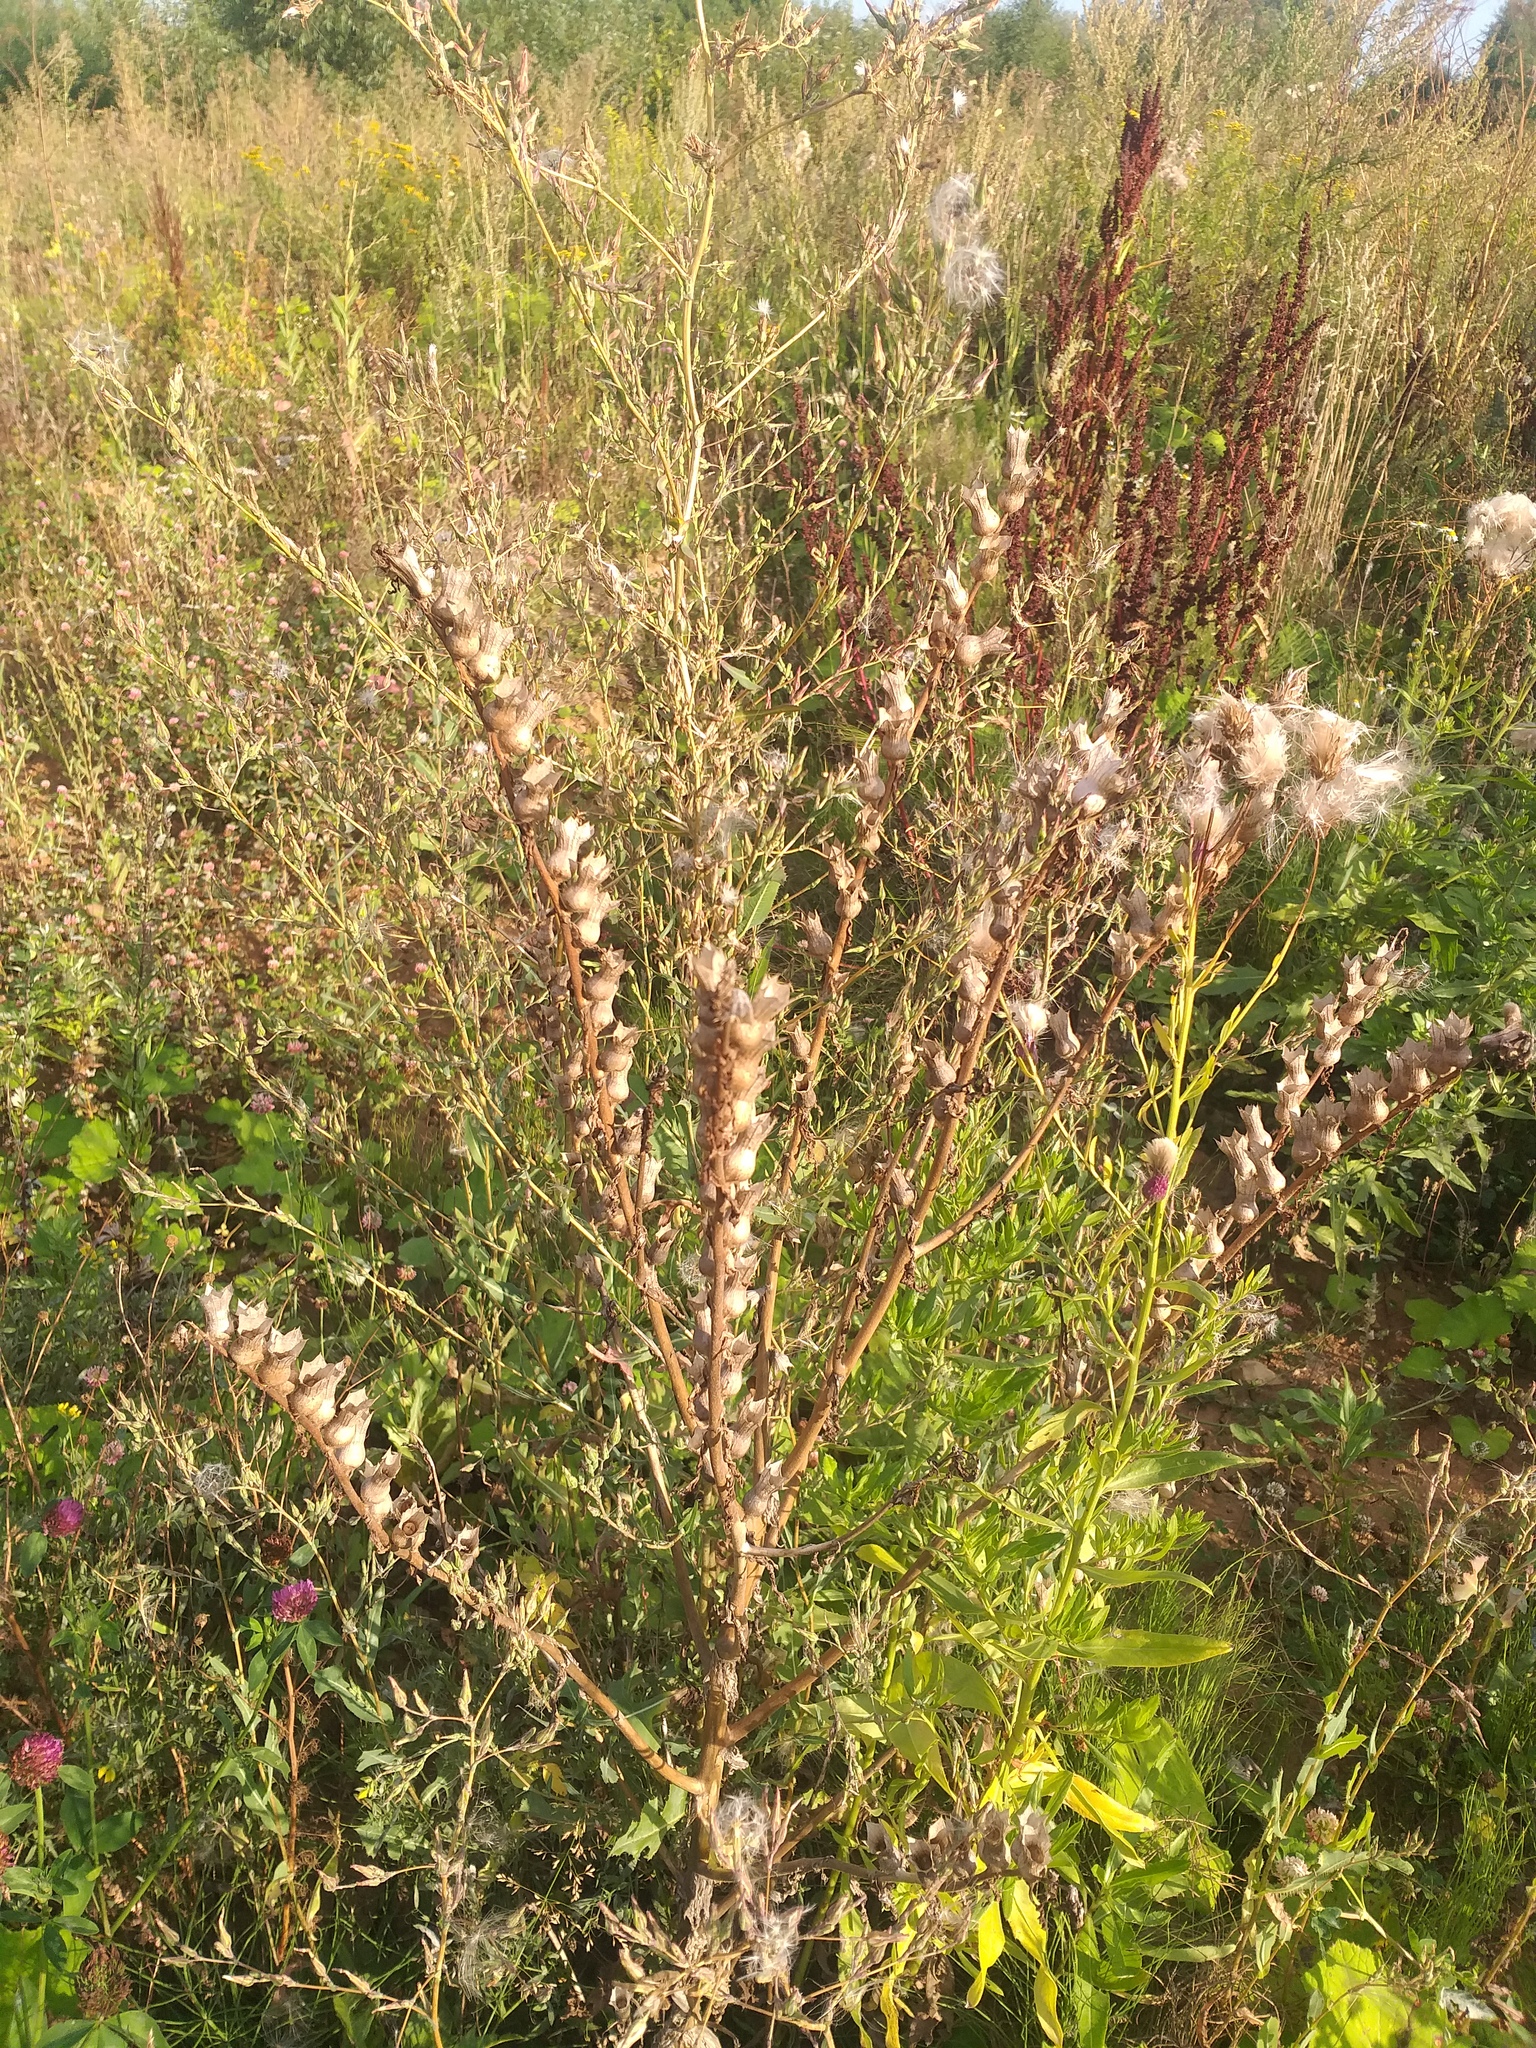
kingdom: Plantae
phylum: Tracheophyta
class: Magnoliopsida
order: Solanales
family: Solanaceae
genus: Hyoscyamus
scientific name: Hyoscyamus niger
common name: Henbane
